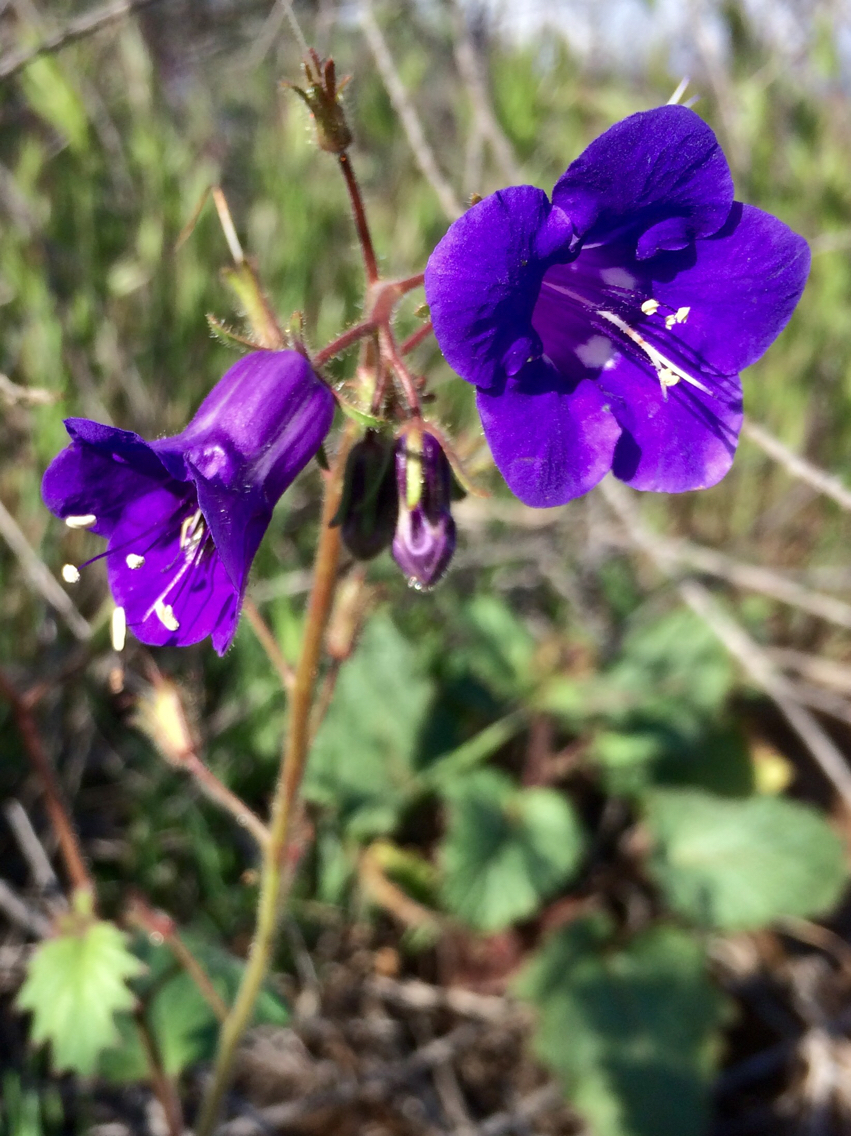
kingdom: Plantae
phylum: Tracheophyta
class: Magnoliopsida
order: Boraginales
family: Hydrophyllaceae
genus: Phacelia
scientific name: Phacelia minor
